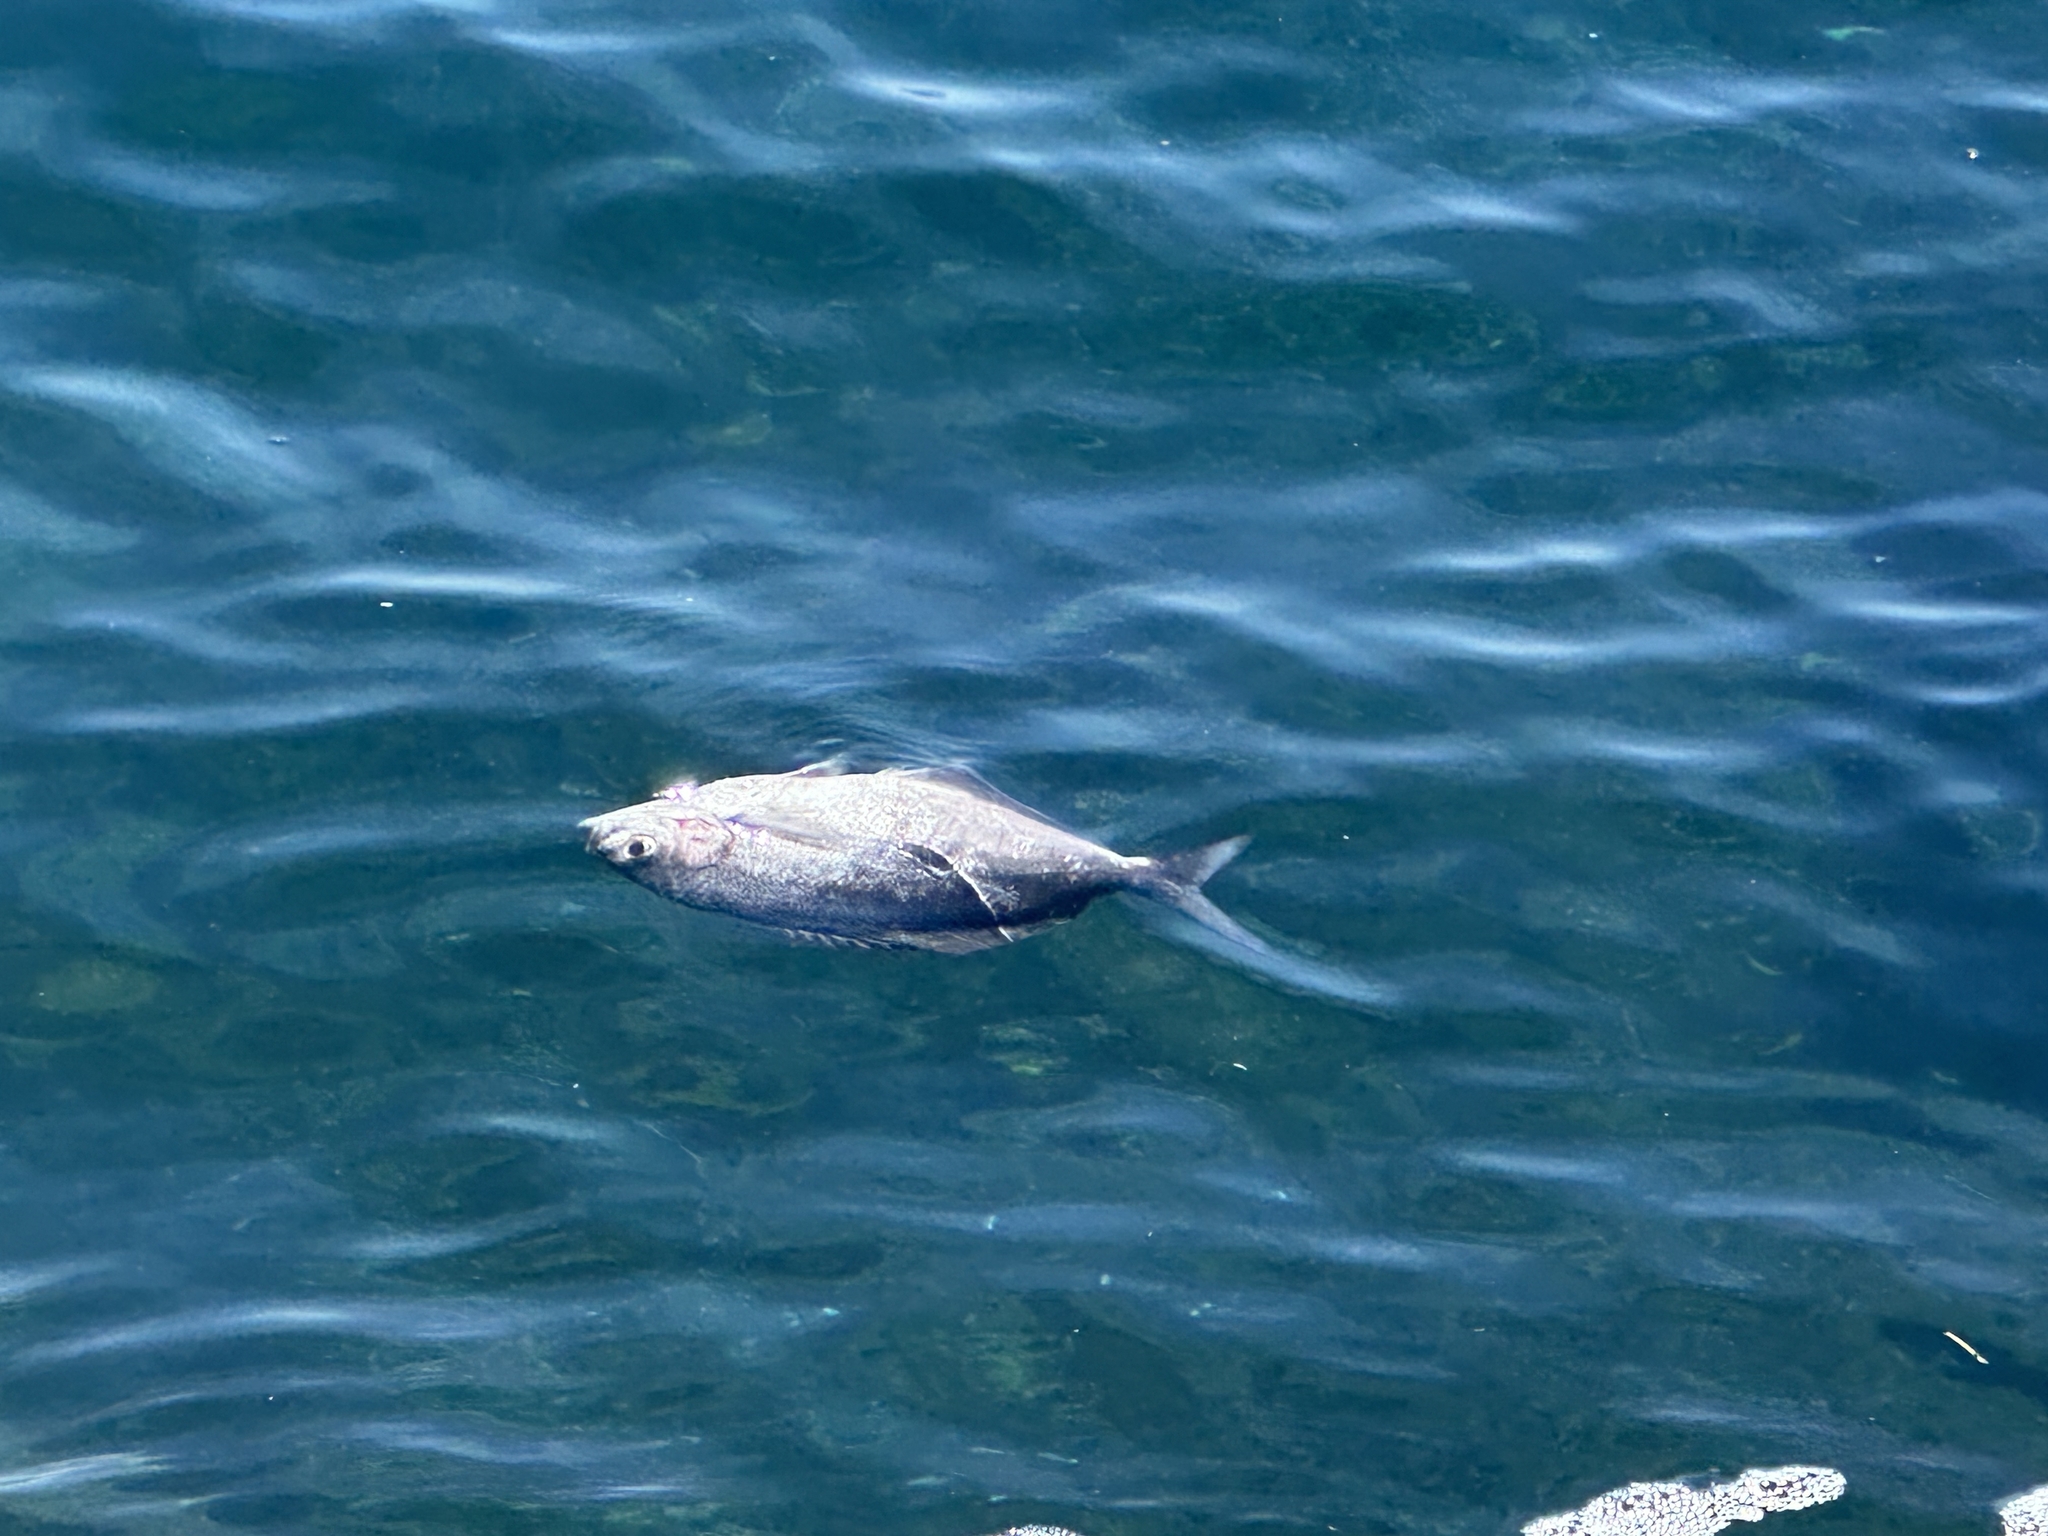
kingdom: Animalia
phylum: Chordata
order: Perciformes
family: Kyphosidae
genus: Scorpis
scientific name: Scorpis lineolata
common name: Sweep
